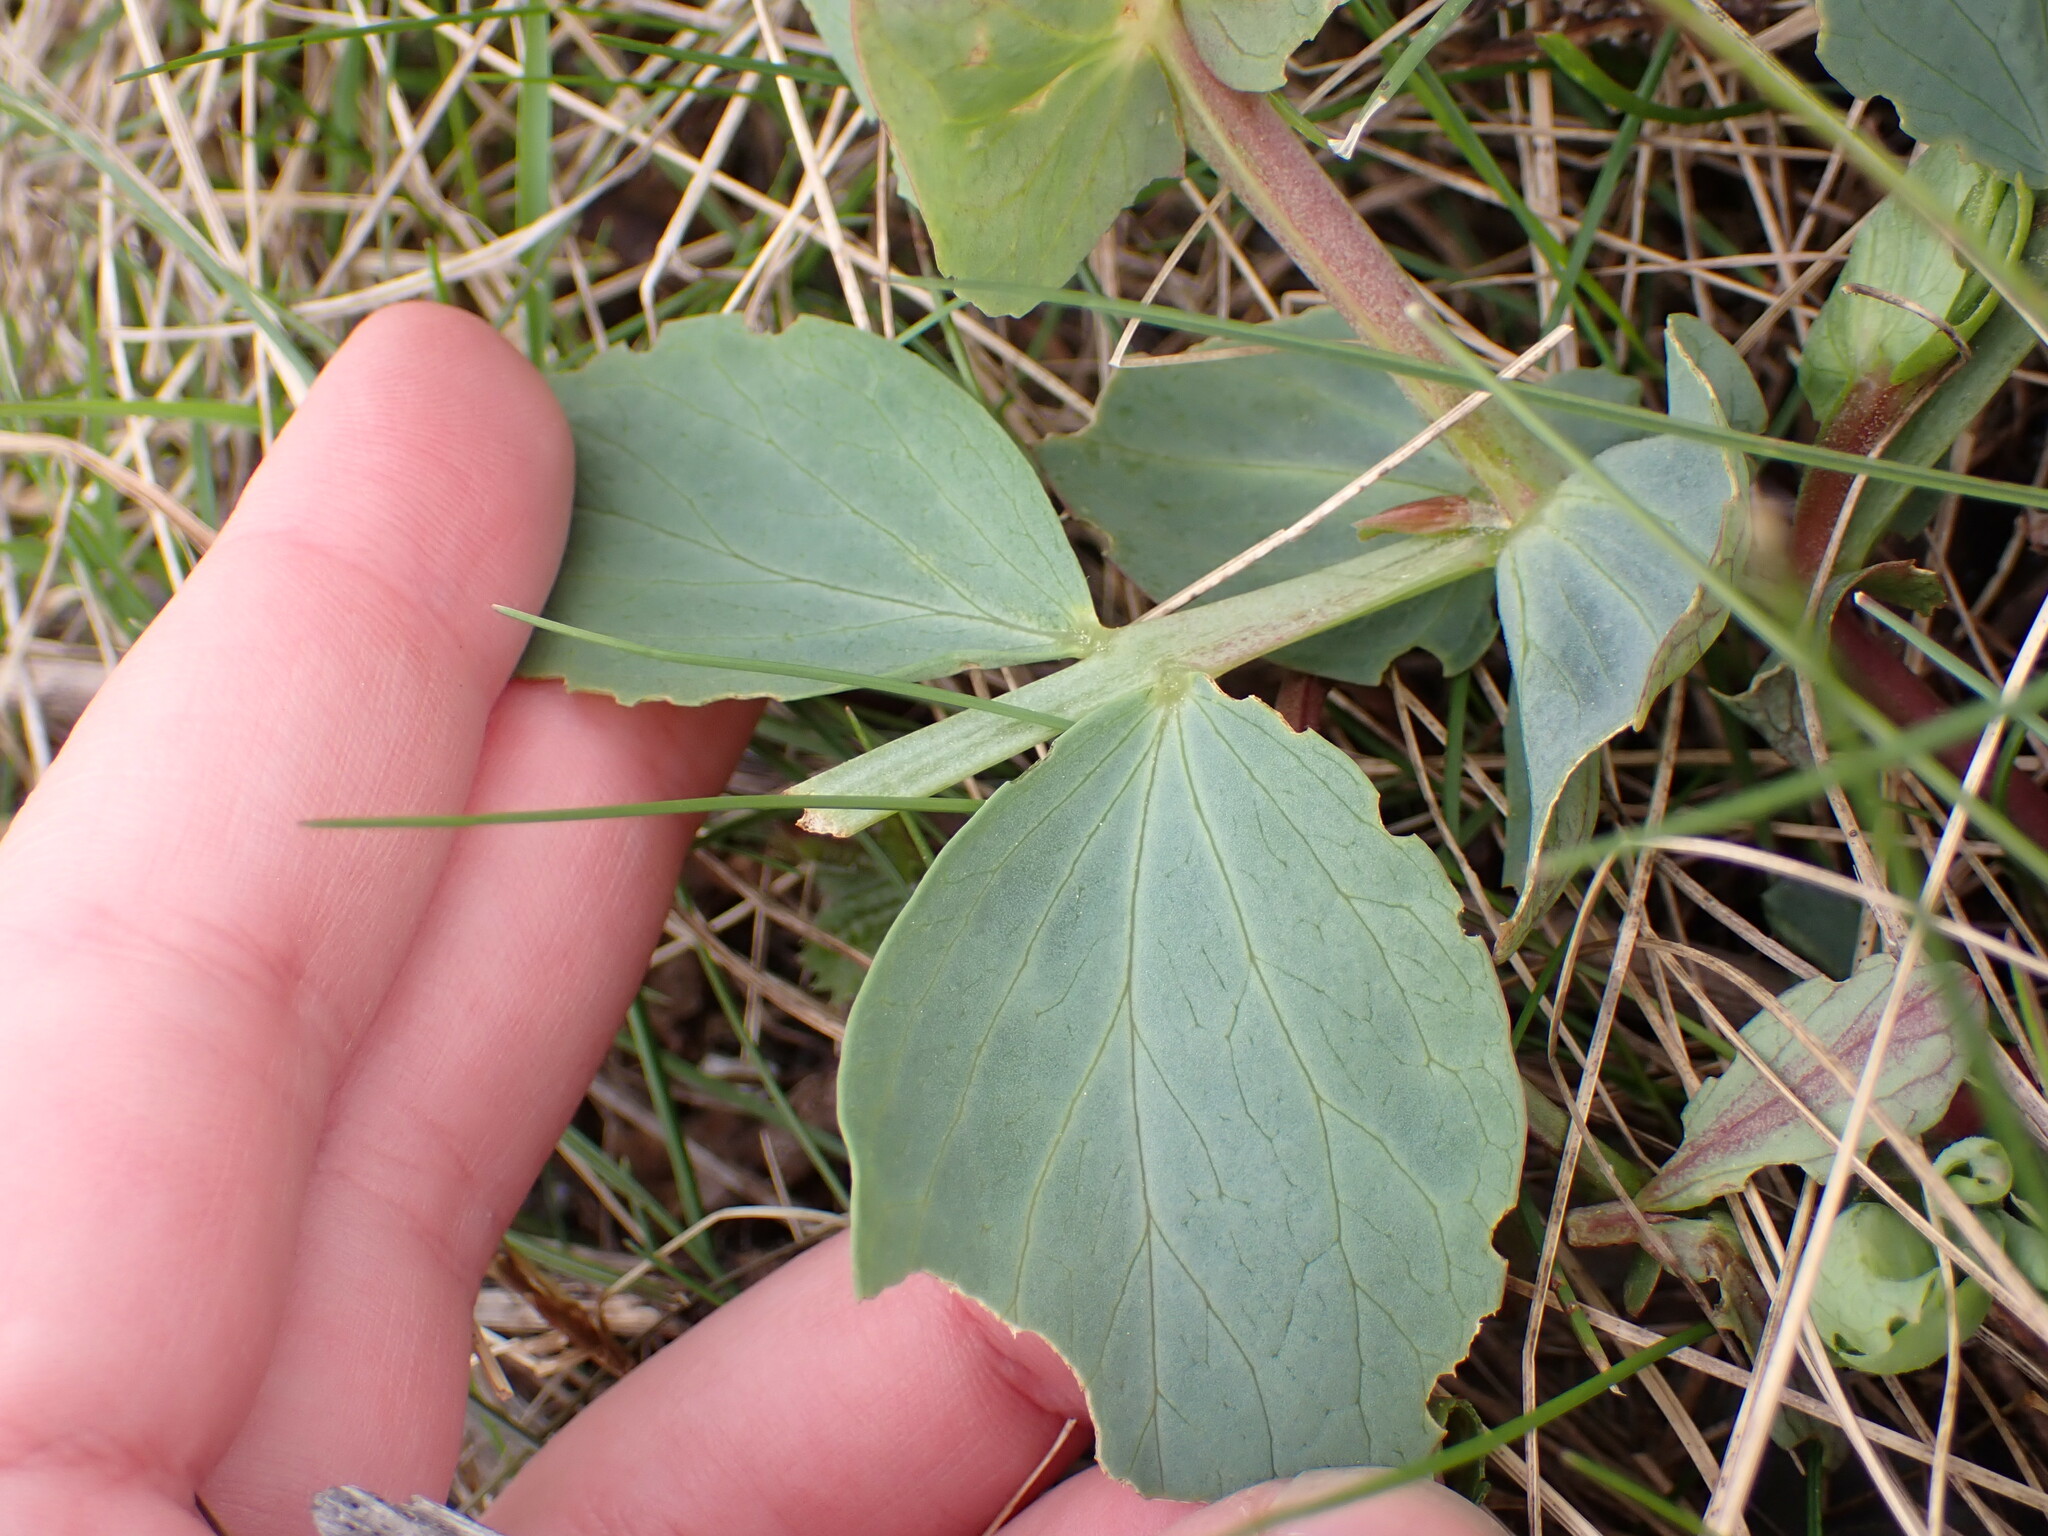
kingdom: Plantae
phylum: Tracheophyta
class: Magnoliopsida
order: Fabales
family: Fabaceae
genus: Lathyrus
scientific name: Lathyrus japonicus
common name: Sea pea
